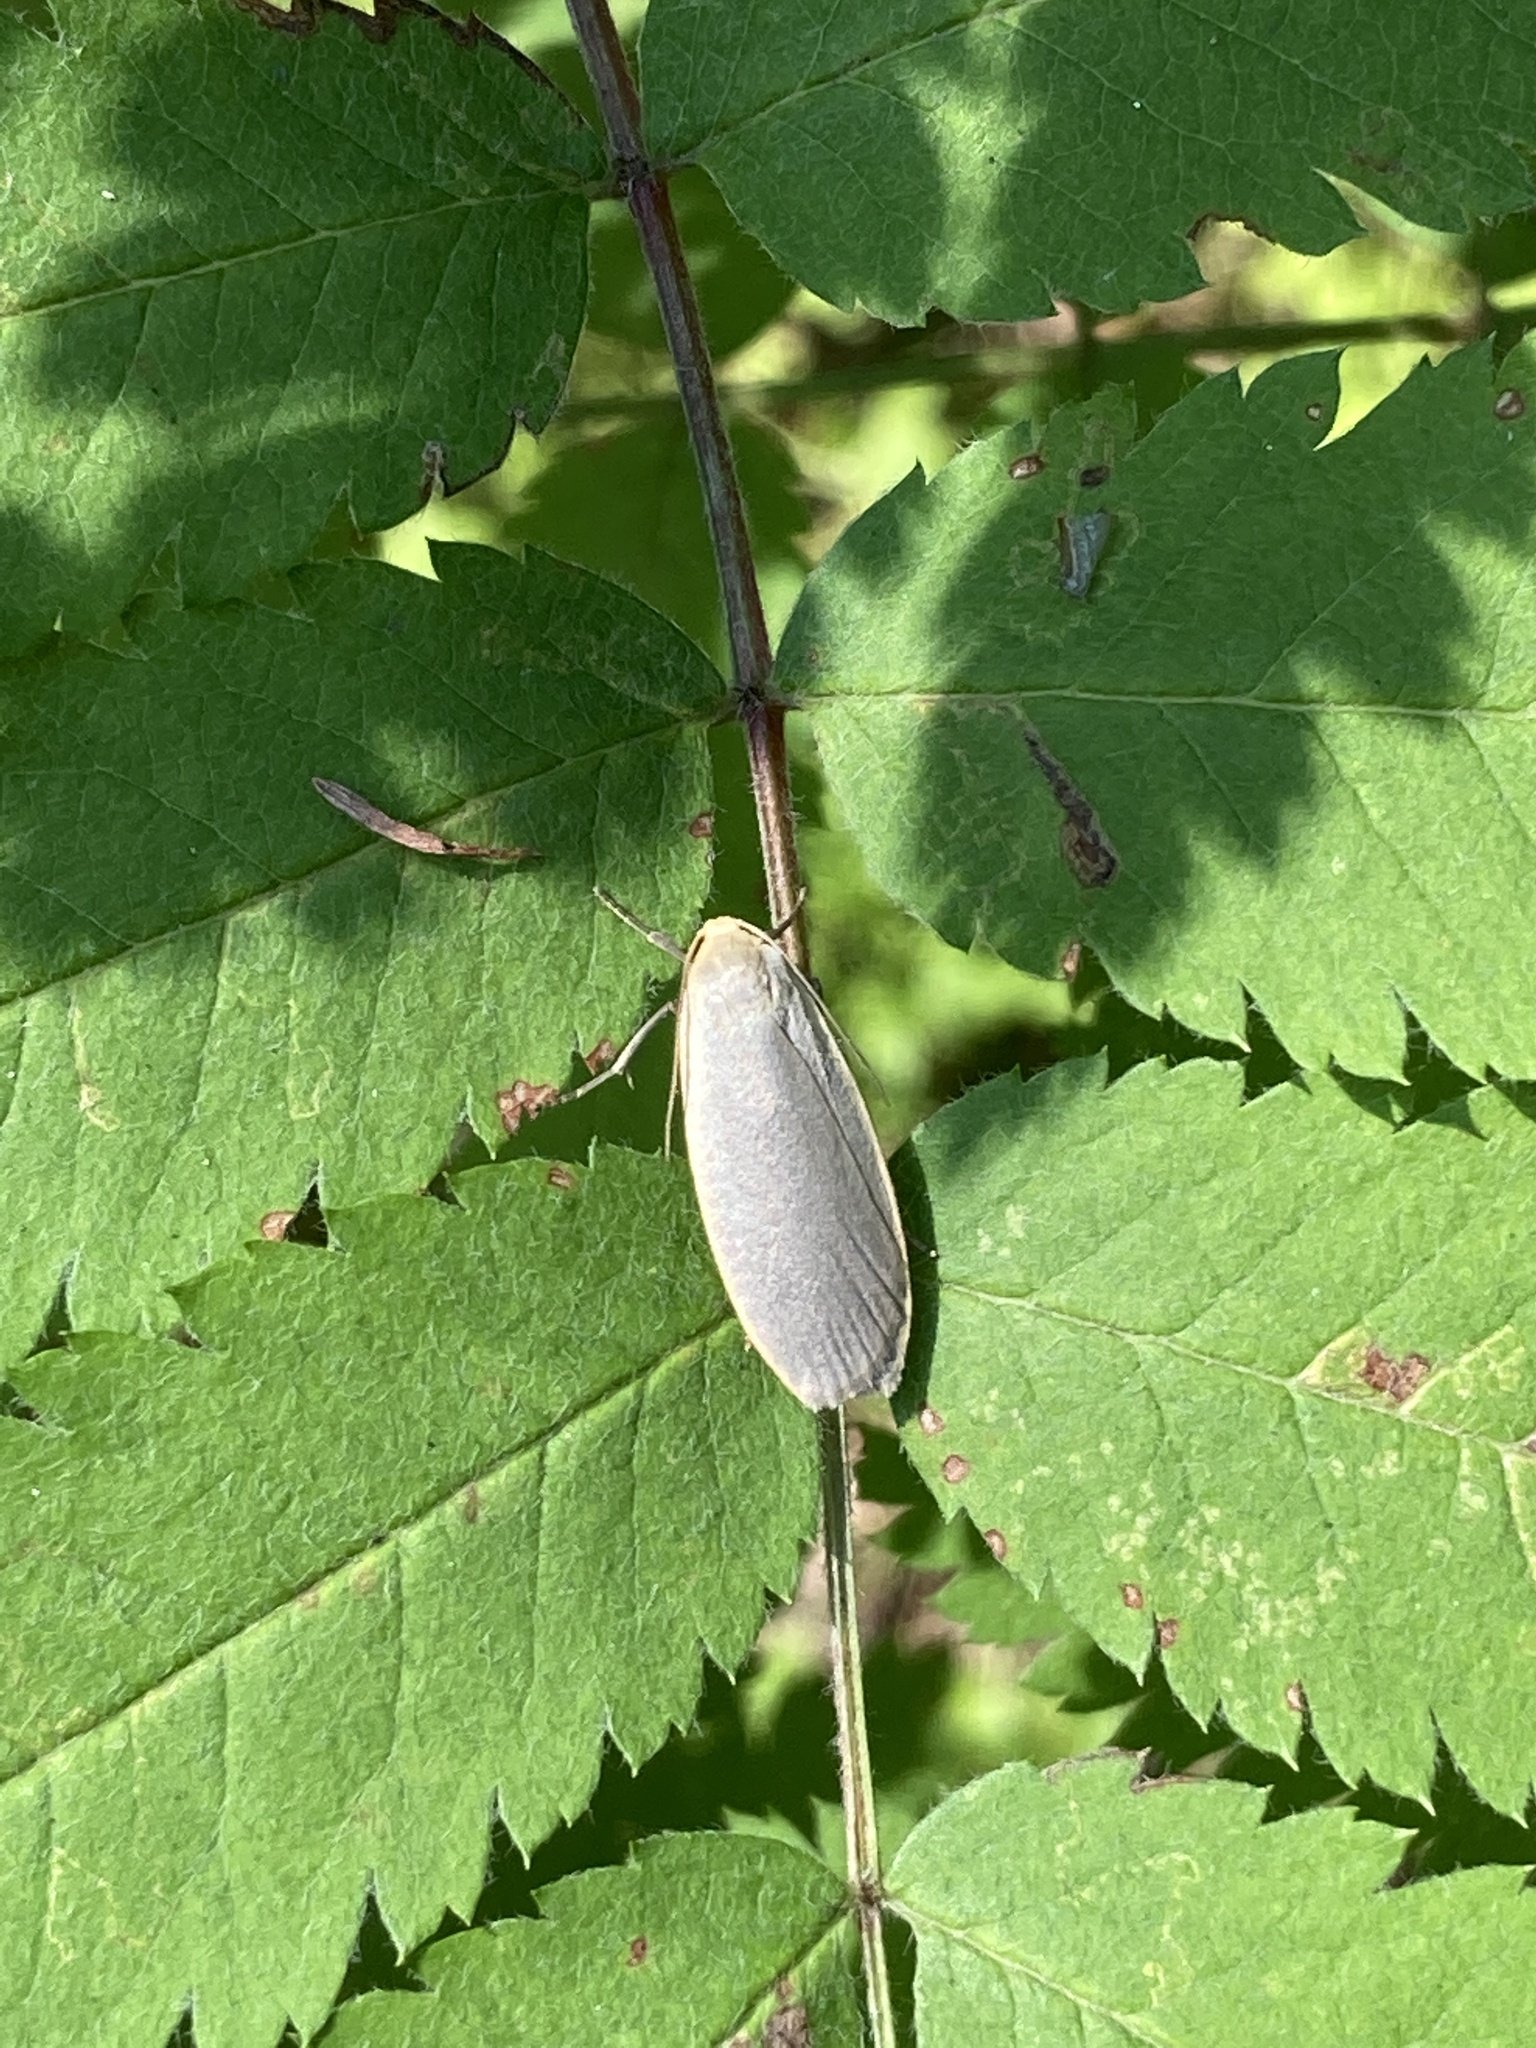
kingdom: Animalia
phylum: Arthropoda
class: Insecta
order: Lepidoptera
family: Erebidae
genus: Collita
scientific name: Collita griseola
